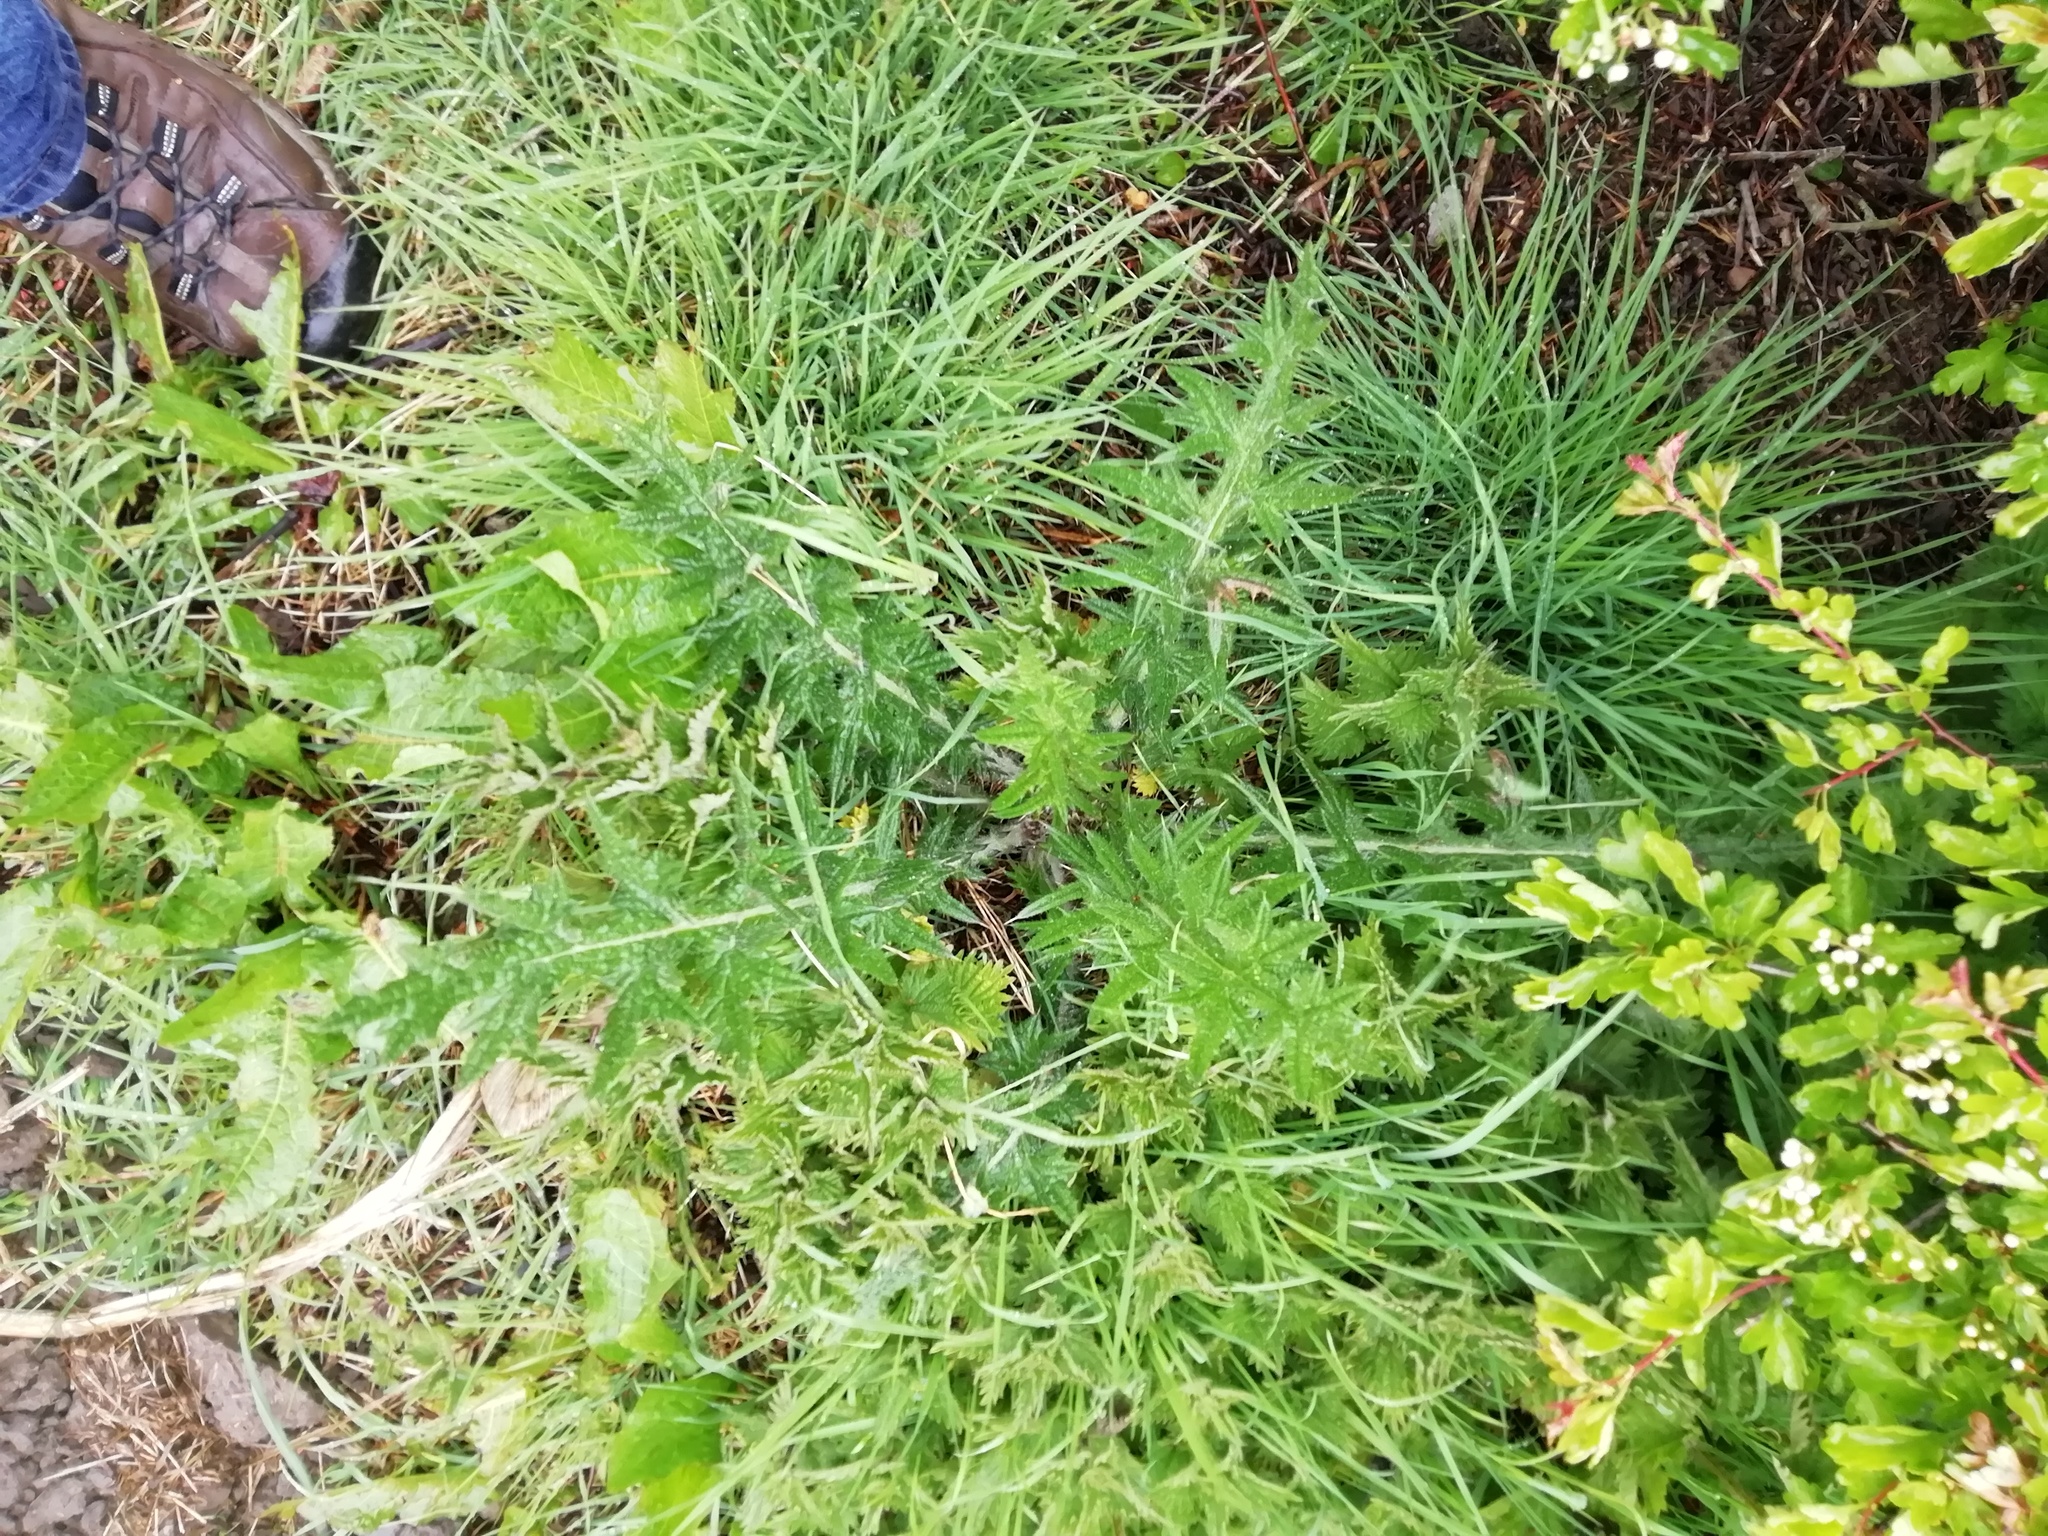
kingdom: Plantae
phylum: Tracheophyta
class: Magnoliopsida
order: Asterales
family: Asteraceae
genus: Cirsium
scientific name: Cirsium vulgare
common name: Bull thistle
